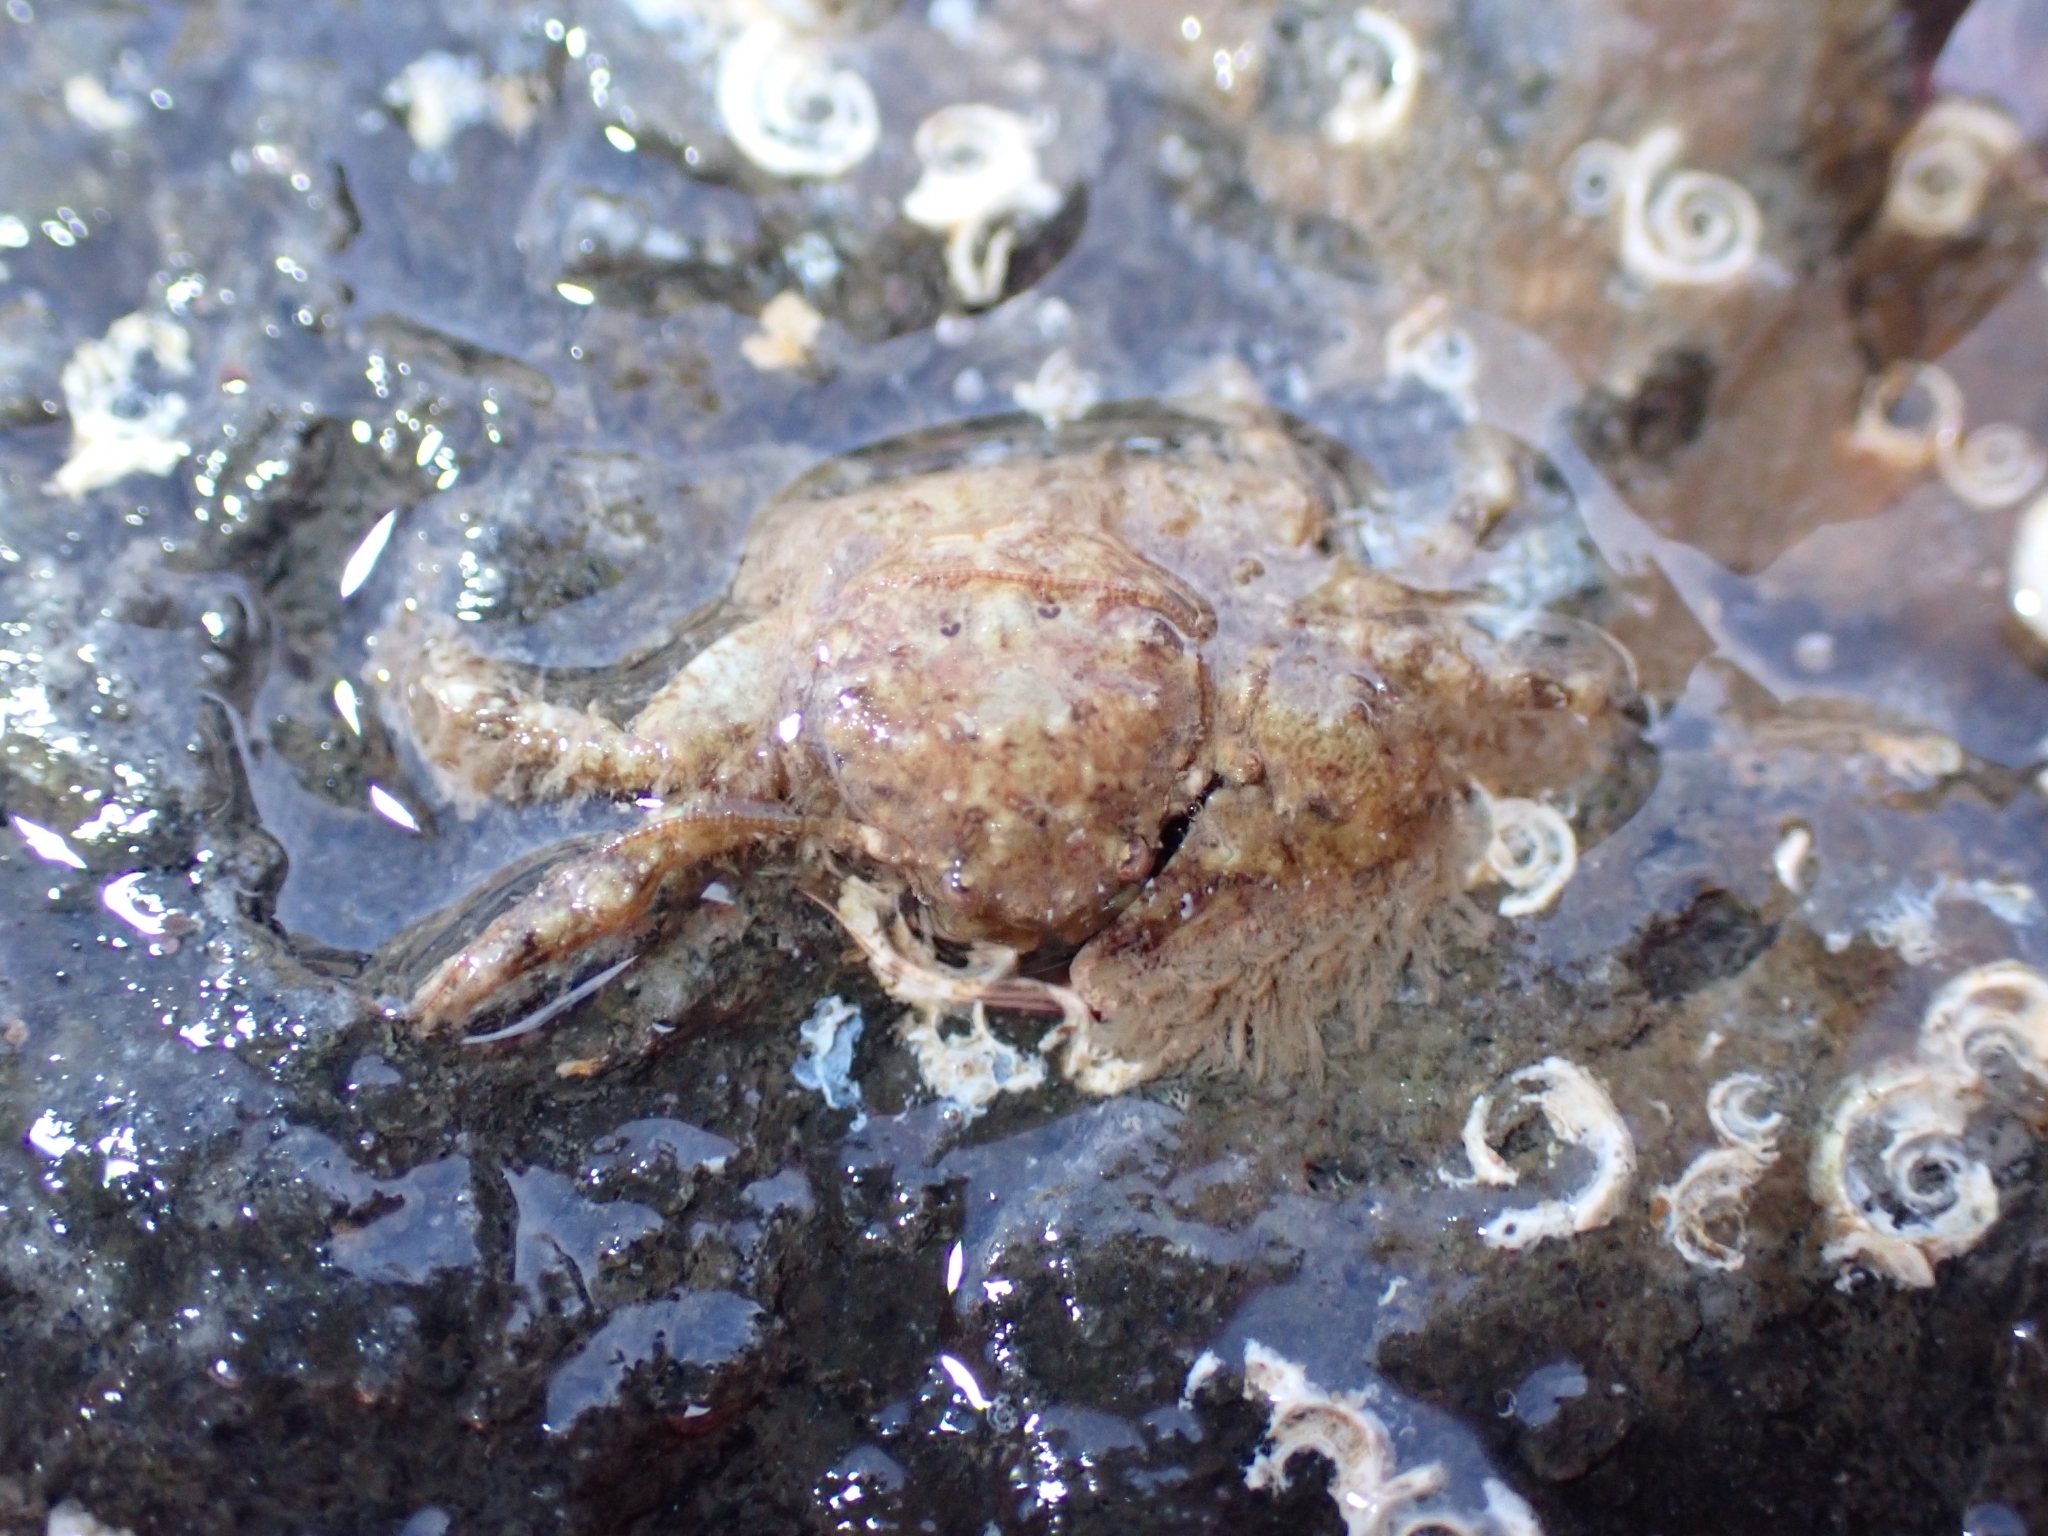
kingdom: Animalia
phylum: Arthropoda
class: Malacostraca
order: Decapoda
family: Porcellanidae
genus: Porcellana
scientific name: Porcellana platycheles
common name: Porcelain crab
